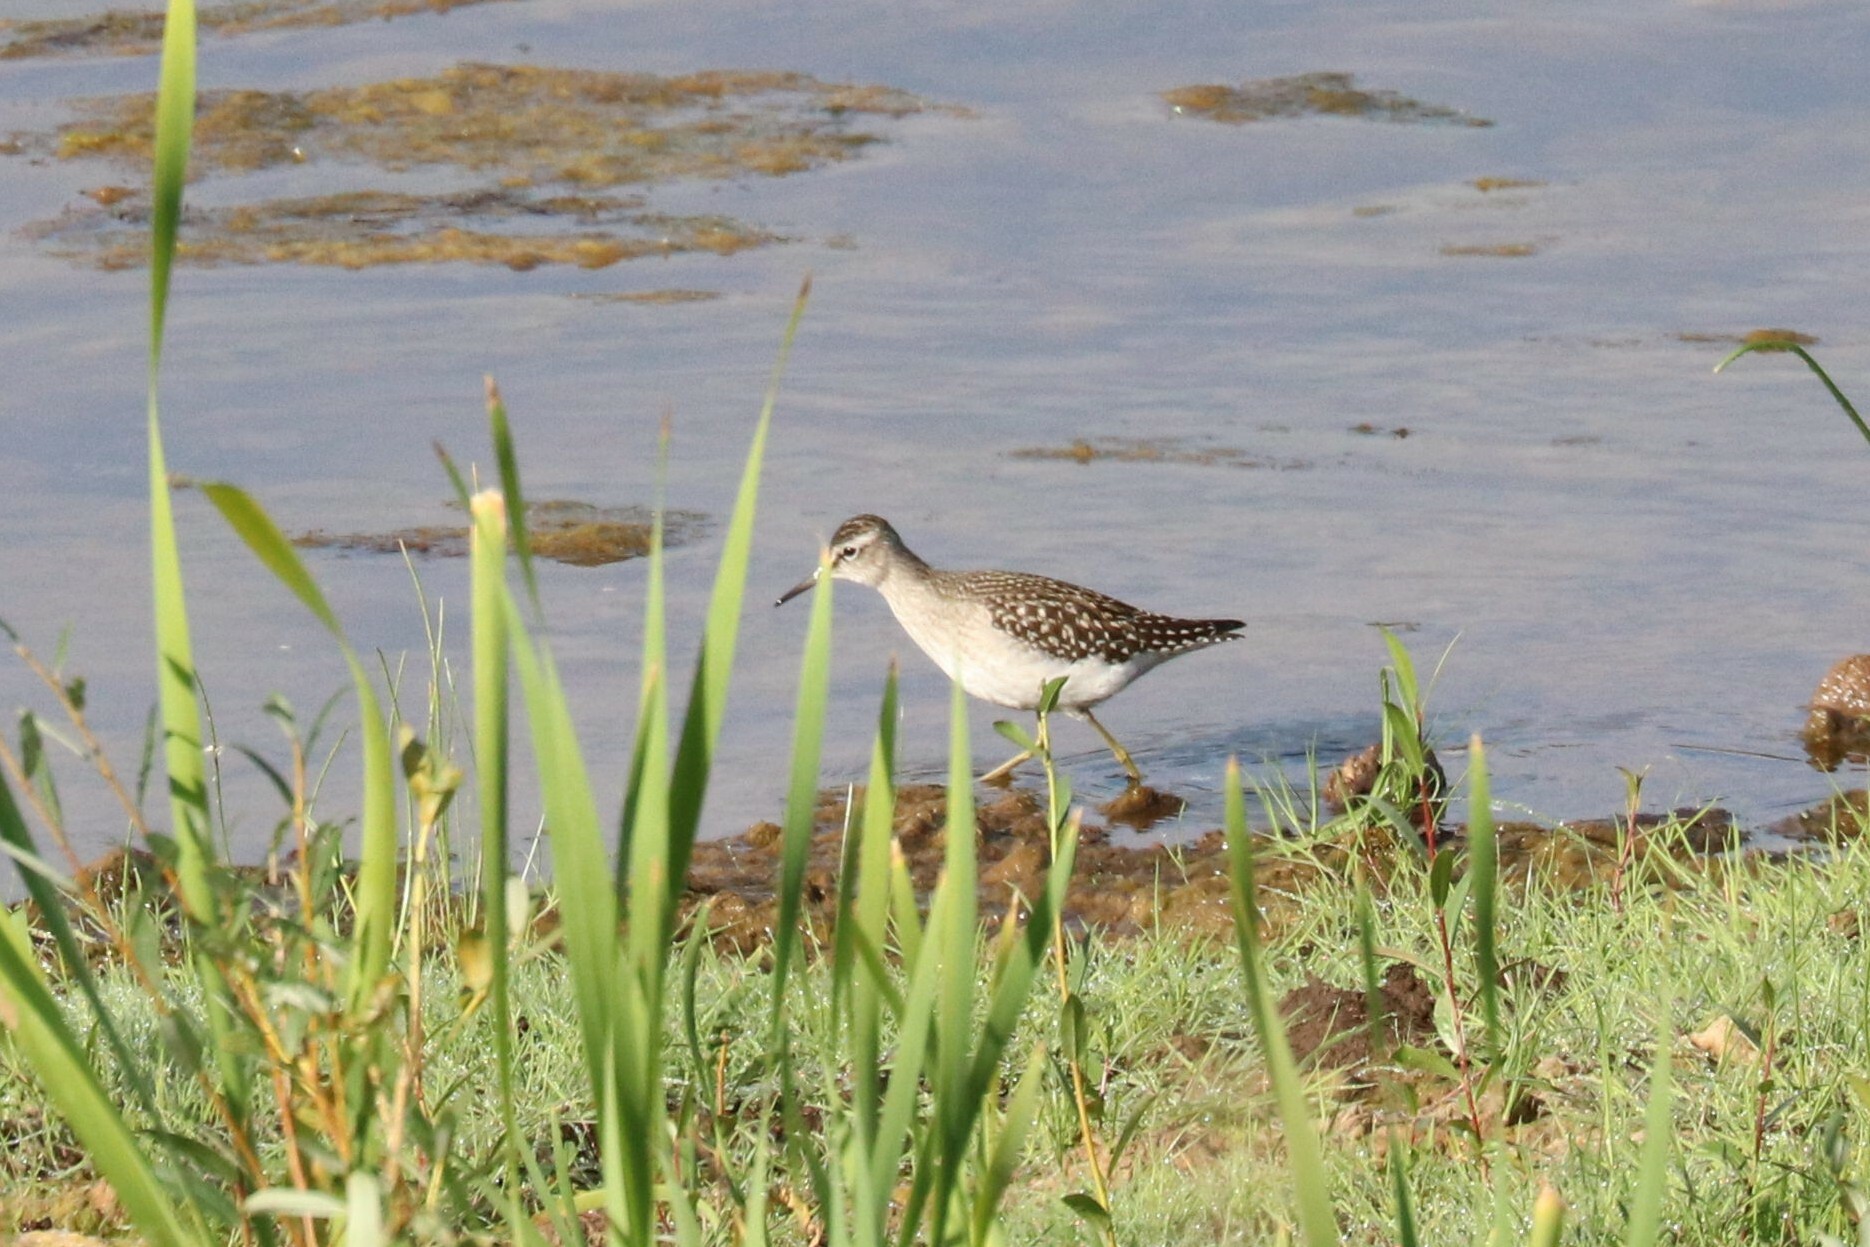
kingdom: Animalia
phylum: Chordata
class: Aves
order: Charadriiformes
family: Scolopacidae
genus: Tringa
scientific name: Tringa glareola
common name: Wood sandpiper
